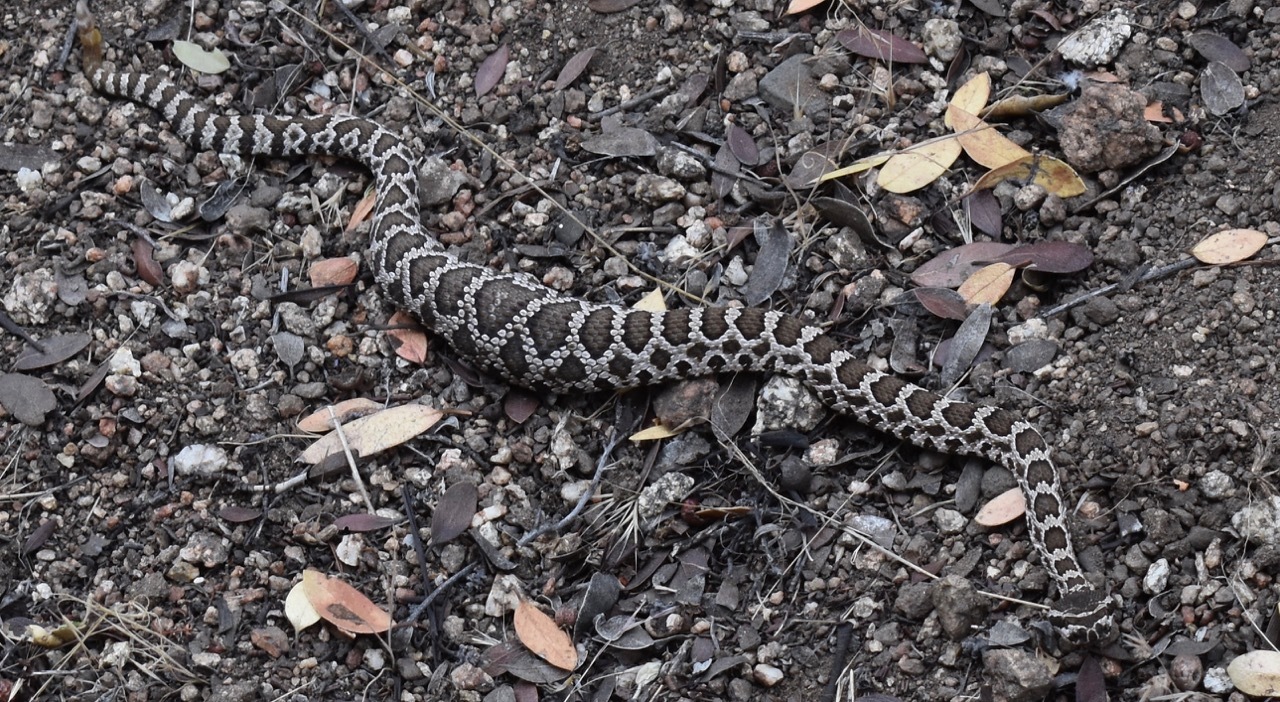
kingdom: Animalia
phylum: Chordata
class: Squamata
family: Viperidae
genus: Crotalus
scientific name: Crotalus oreganus
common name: Abyssus
